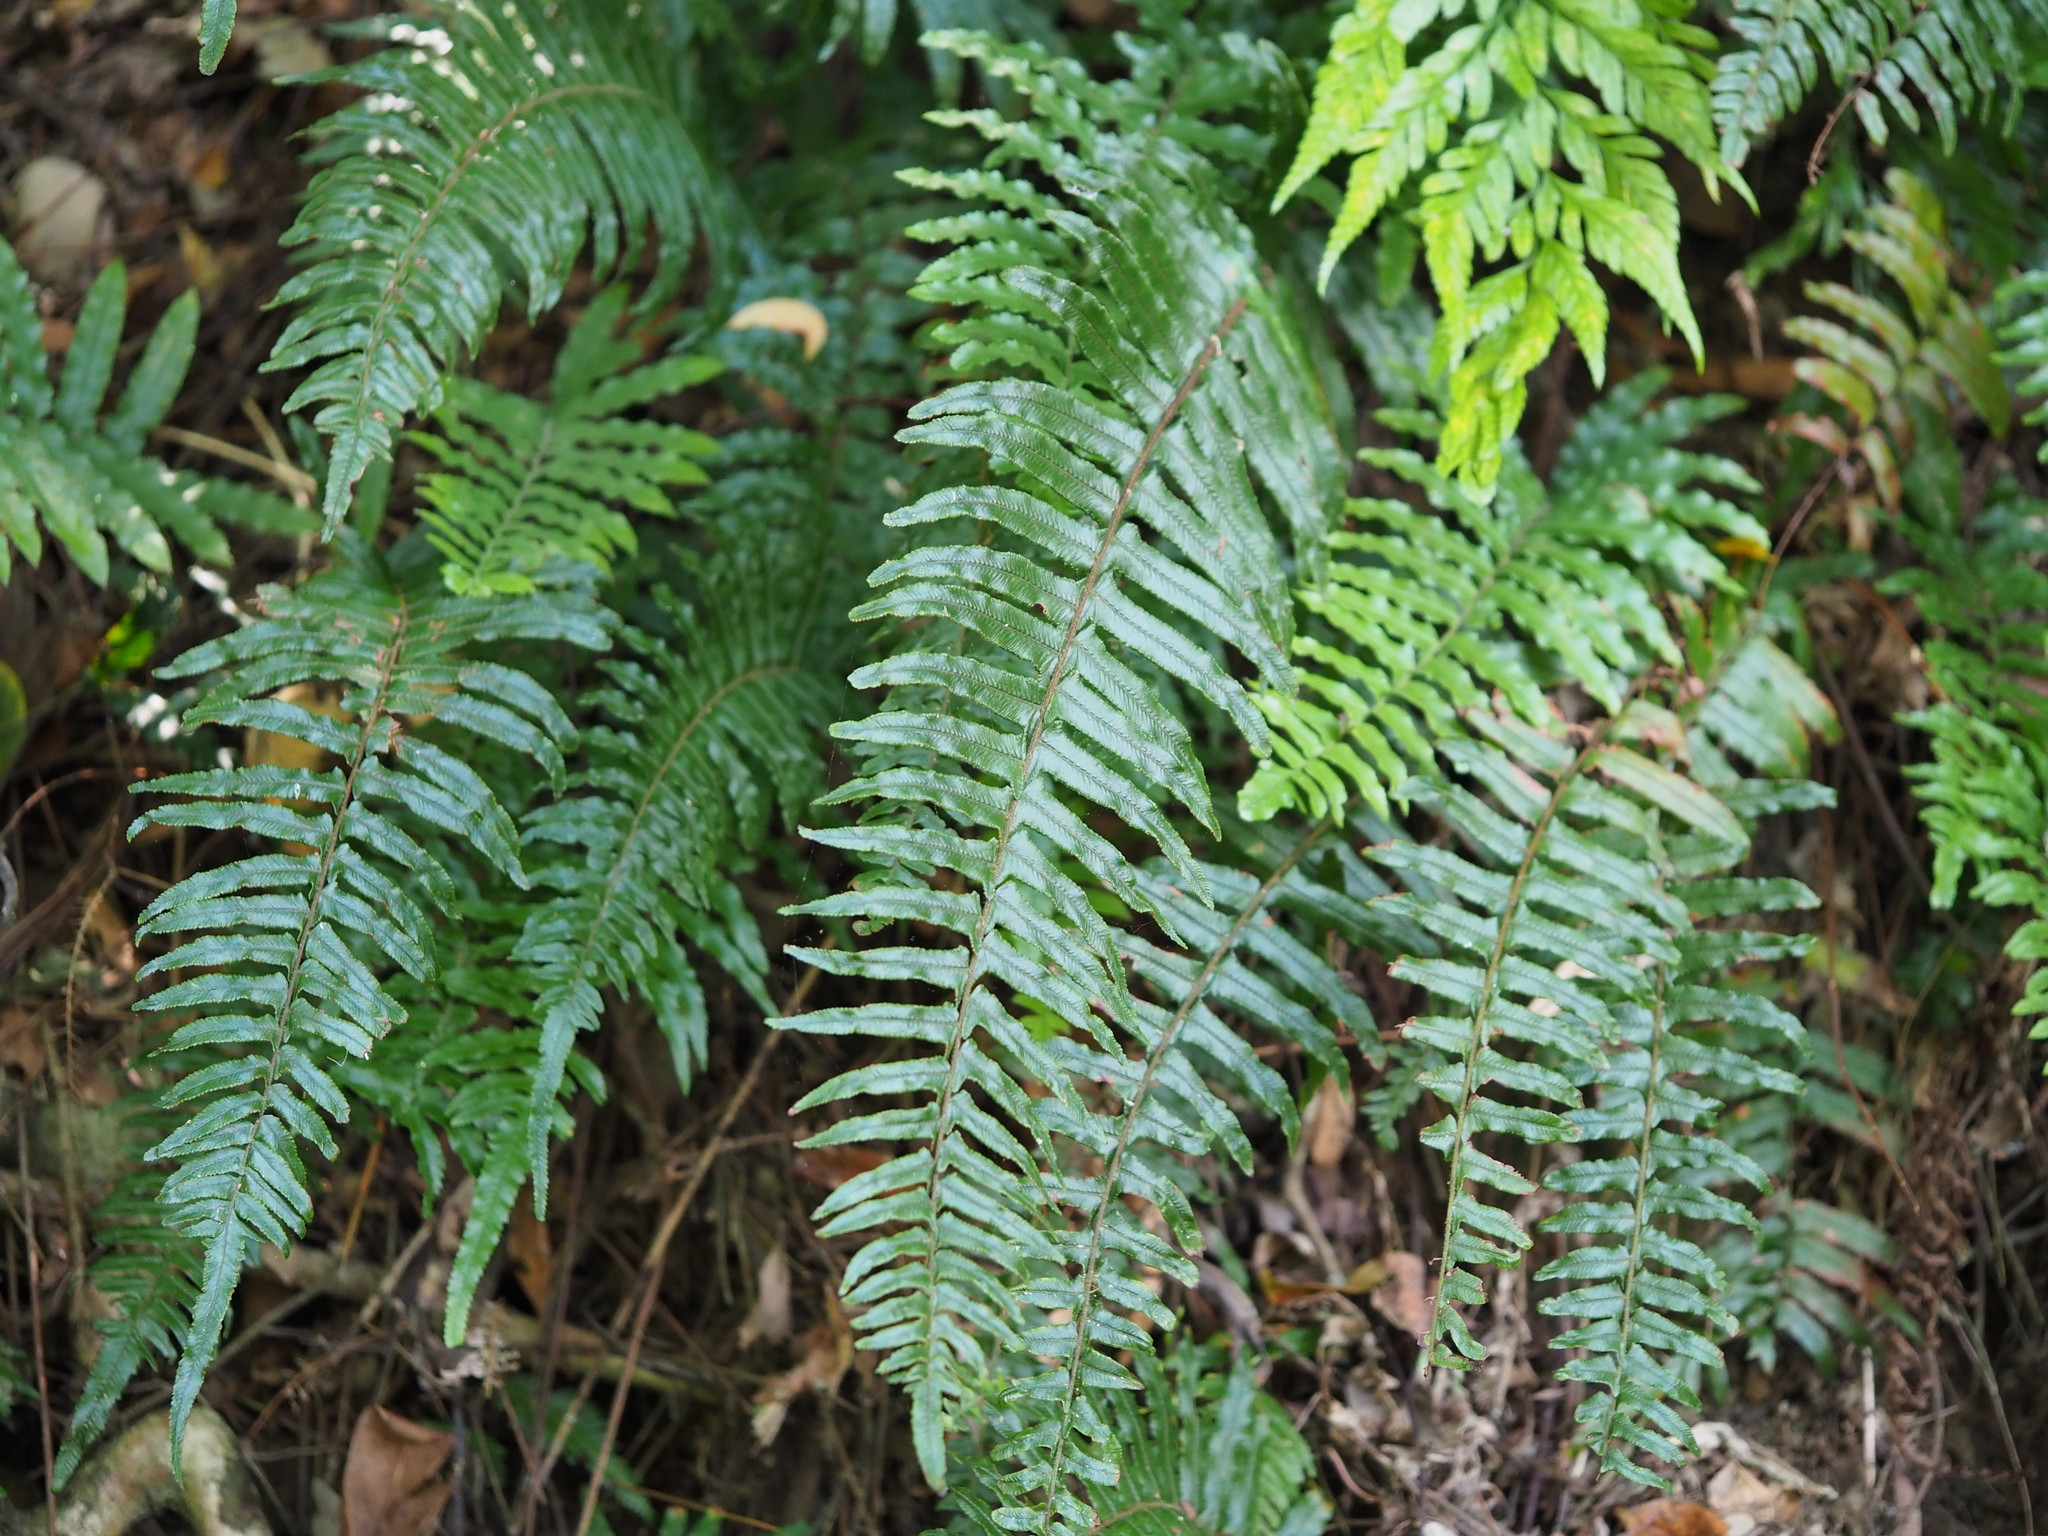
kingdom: Plantae
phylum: Tracheophyta
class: Polypodiopsida
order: Polypodiales
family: Dennstaedtiaceae
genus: Microlepia
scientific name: Microlepia hookeriana
